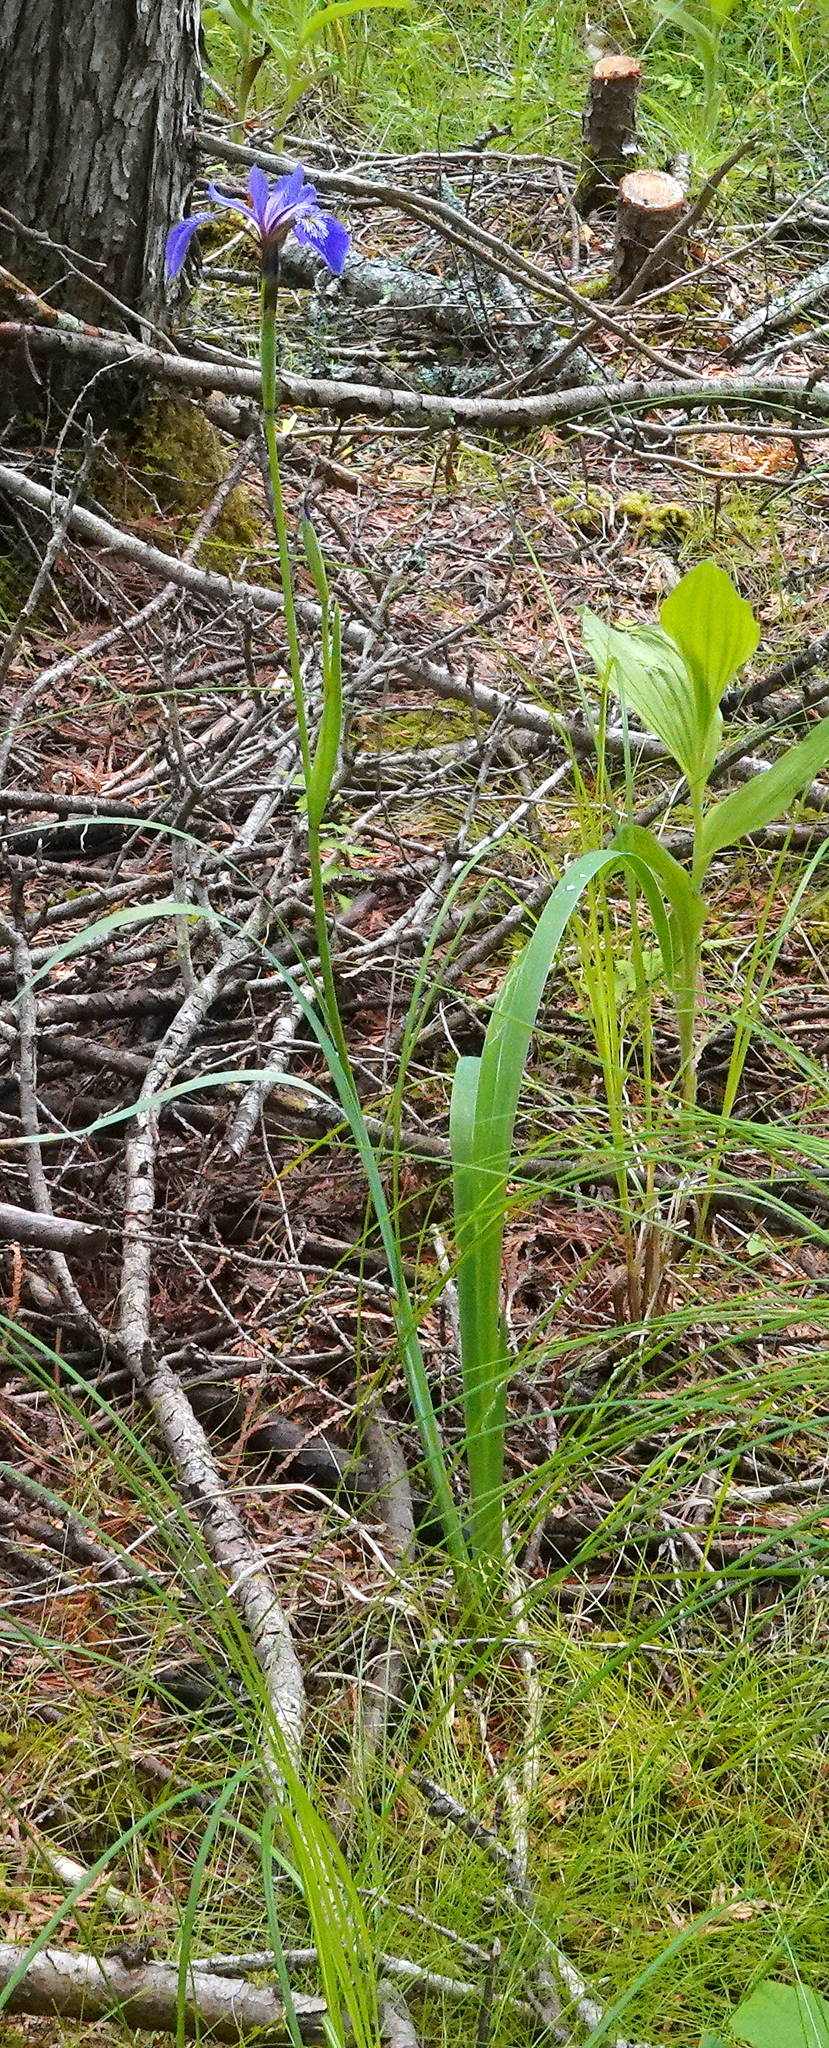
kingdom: Plantae
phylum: Tracheophyta
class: Liliopsida
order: Asparagales
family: Iridaceae
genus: Iris
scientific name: Iris versicolor
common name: Purple iris
